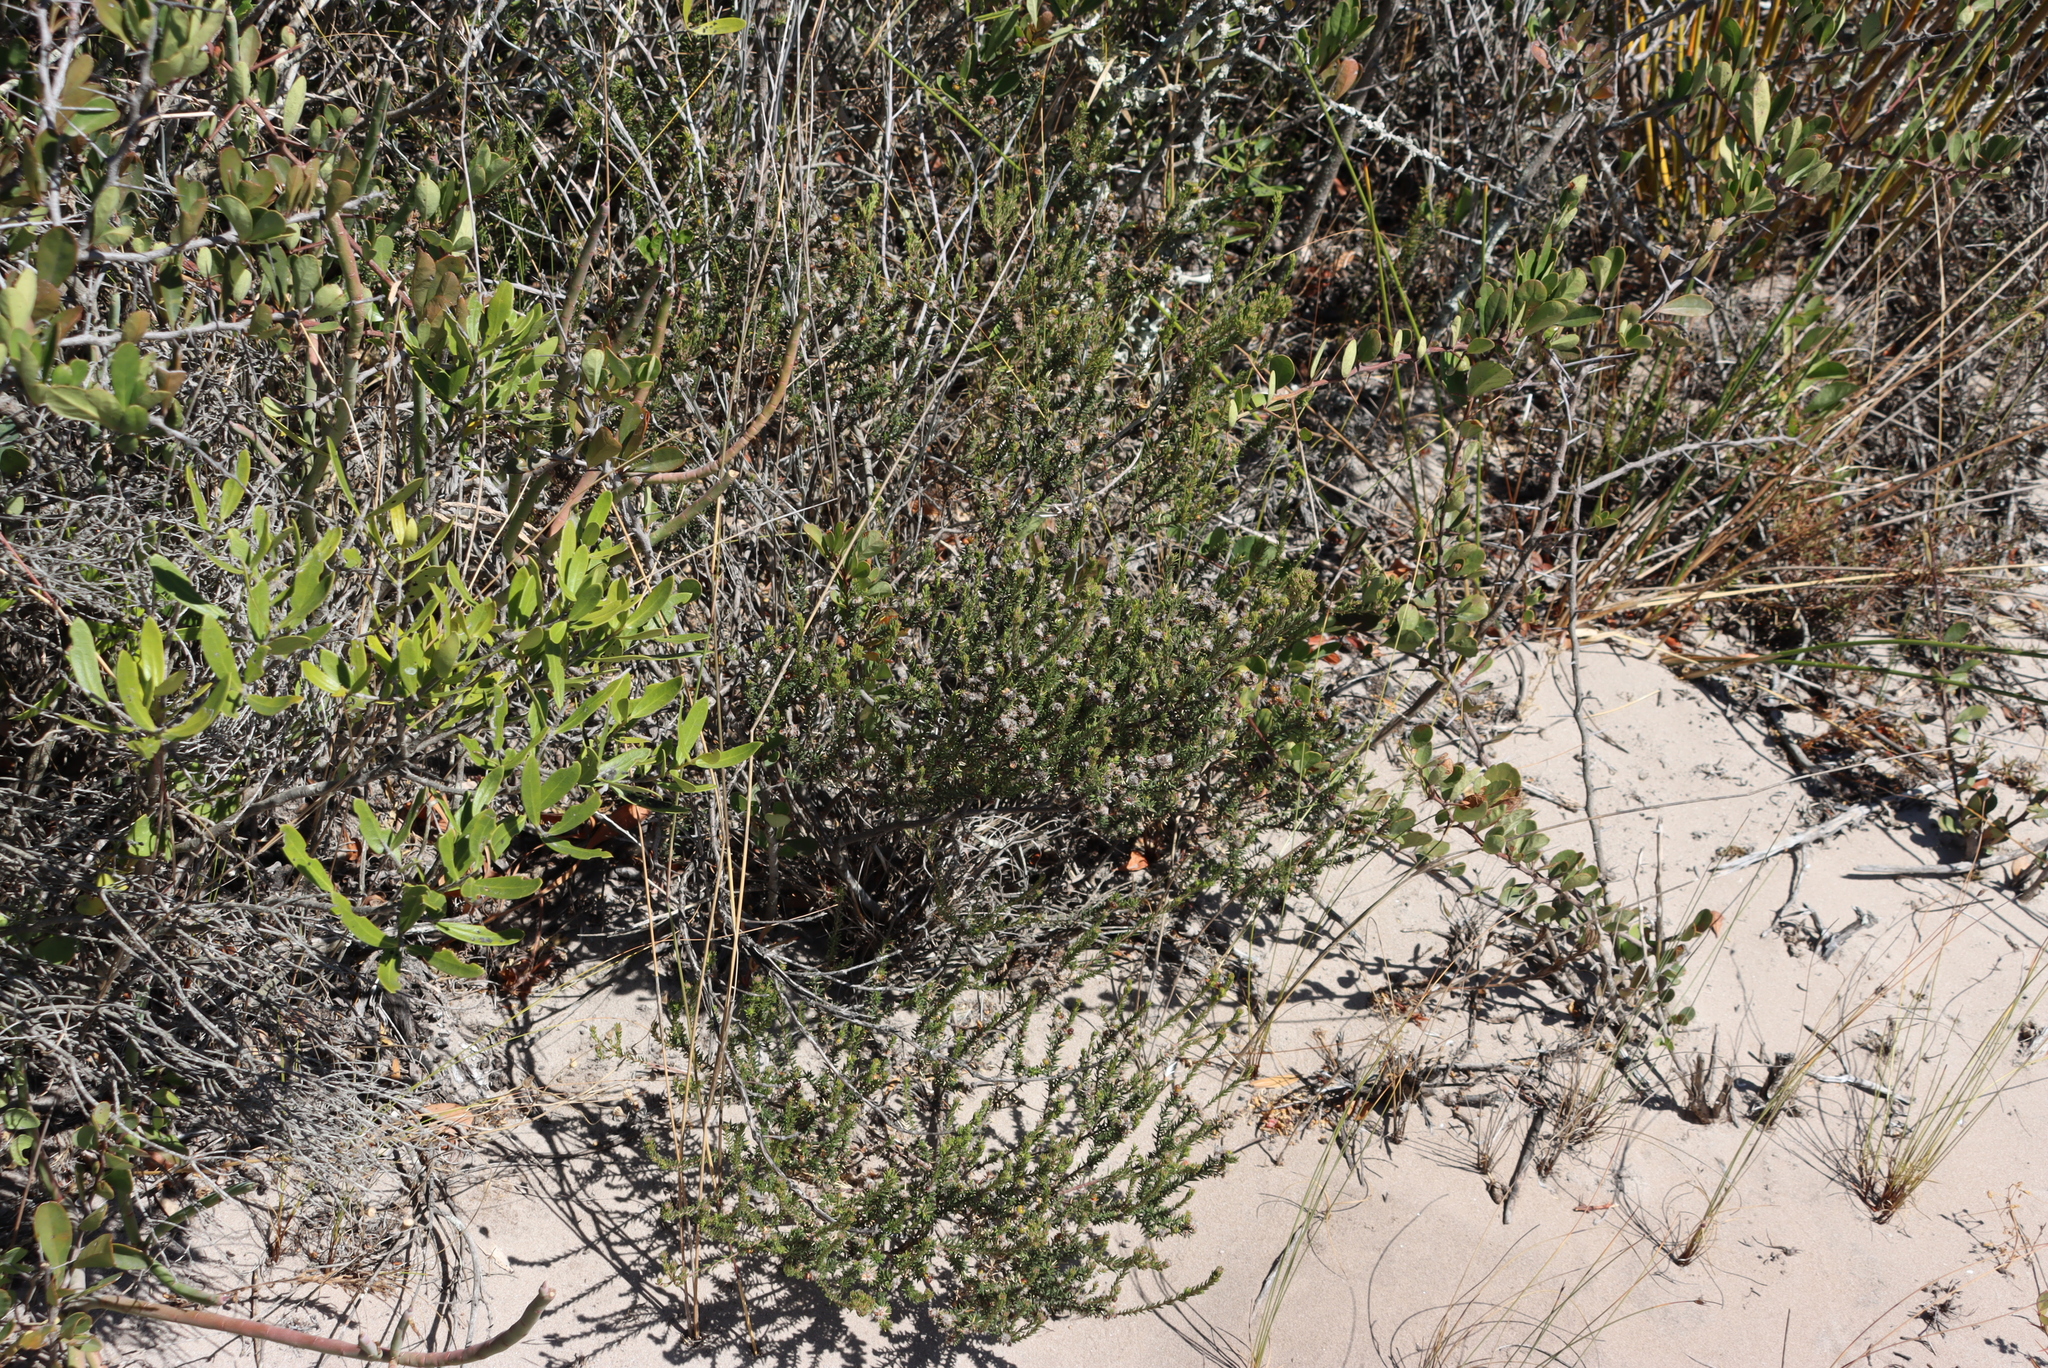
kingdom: Plantae
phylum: Tracheophyta
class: Magnoliopsida
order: Rosales
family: Rhamnaceae
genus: Phylica
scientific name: Phylica ericoides
